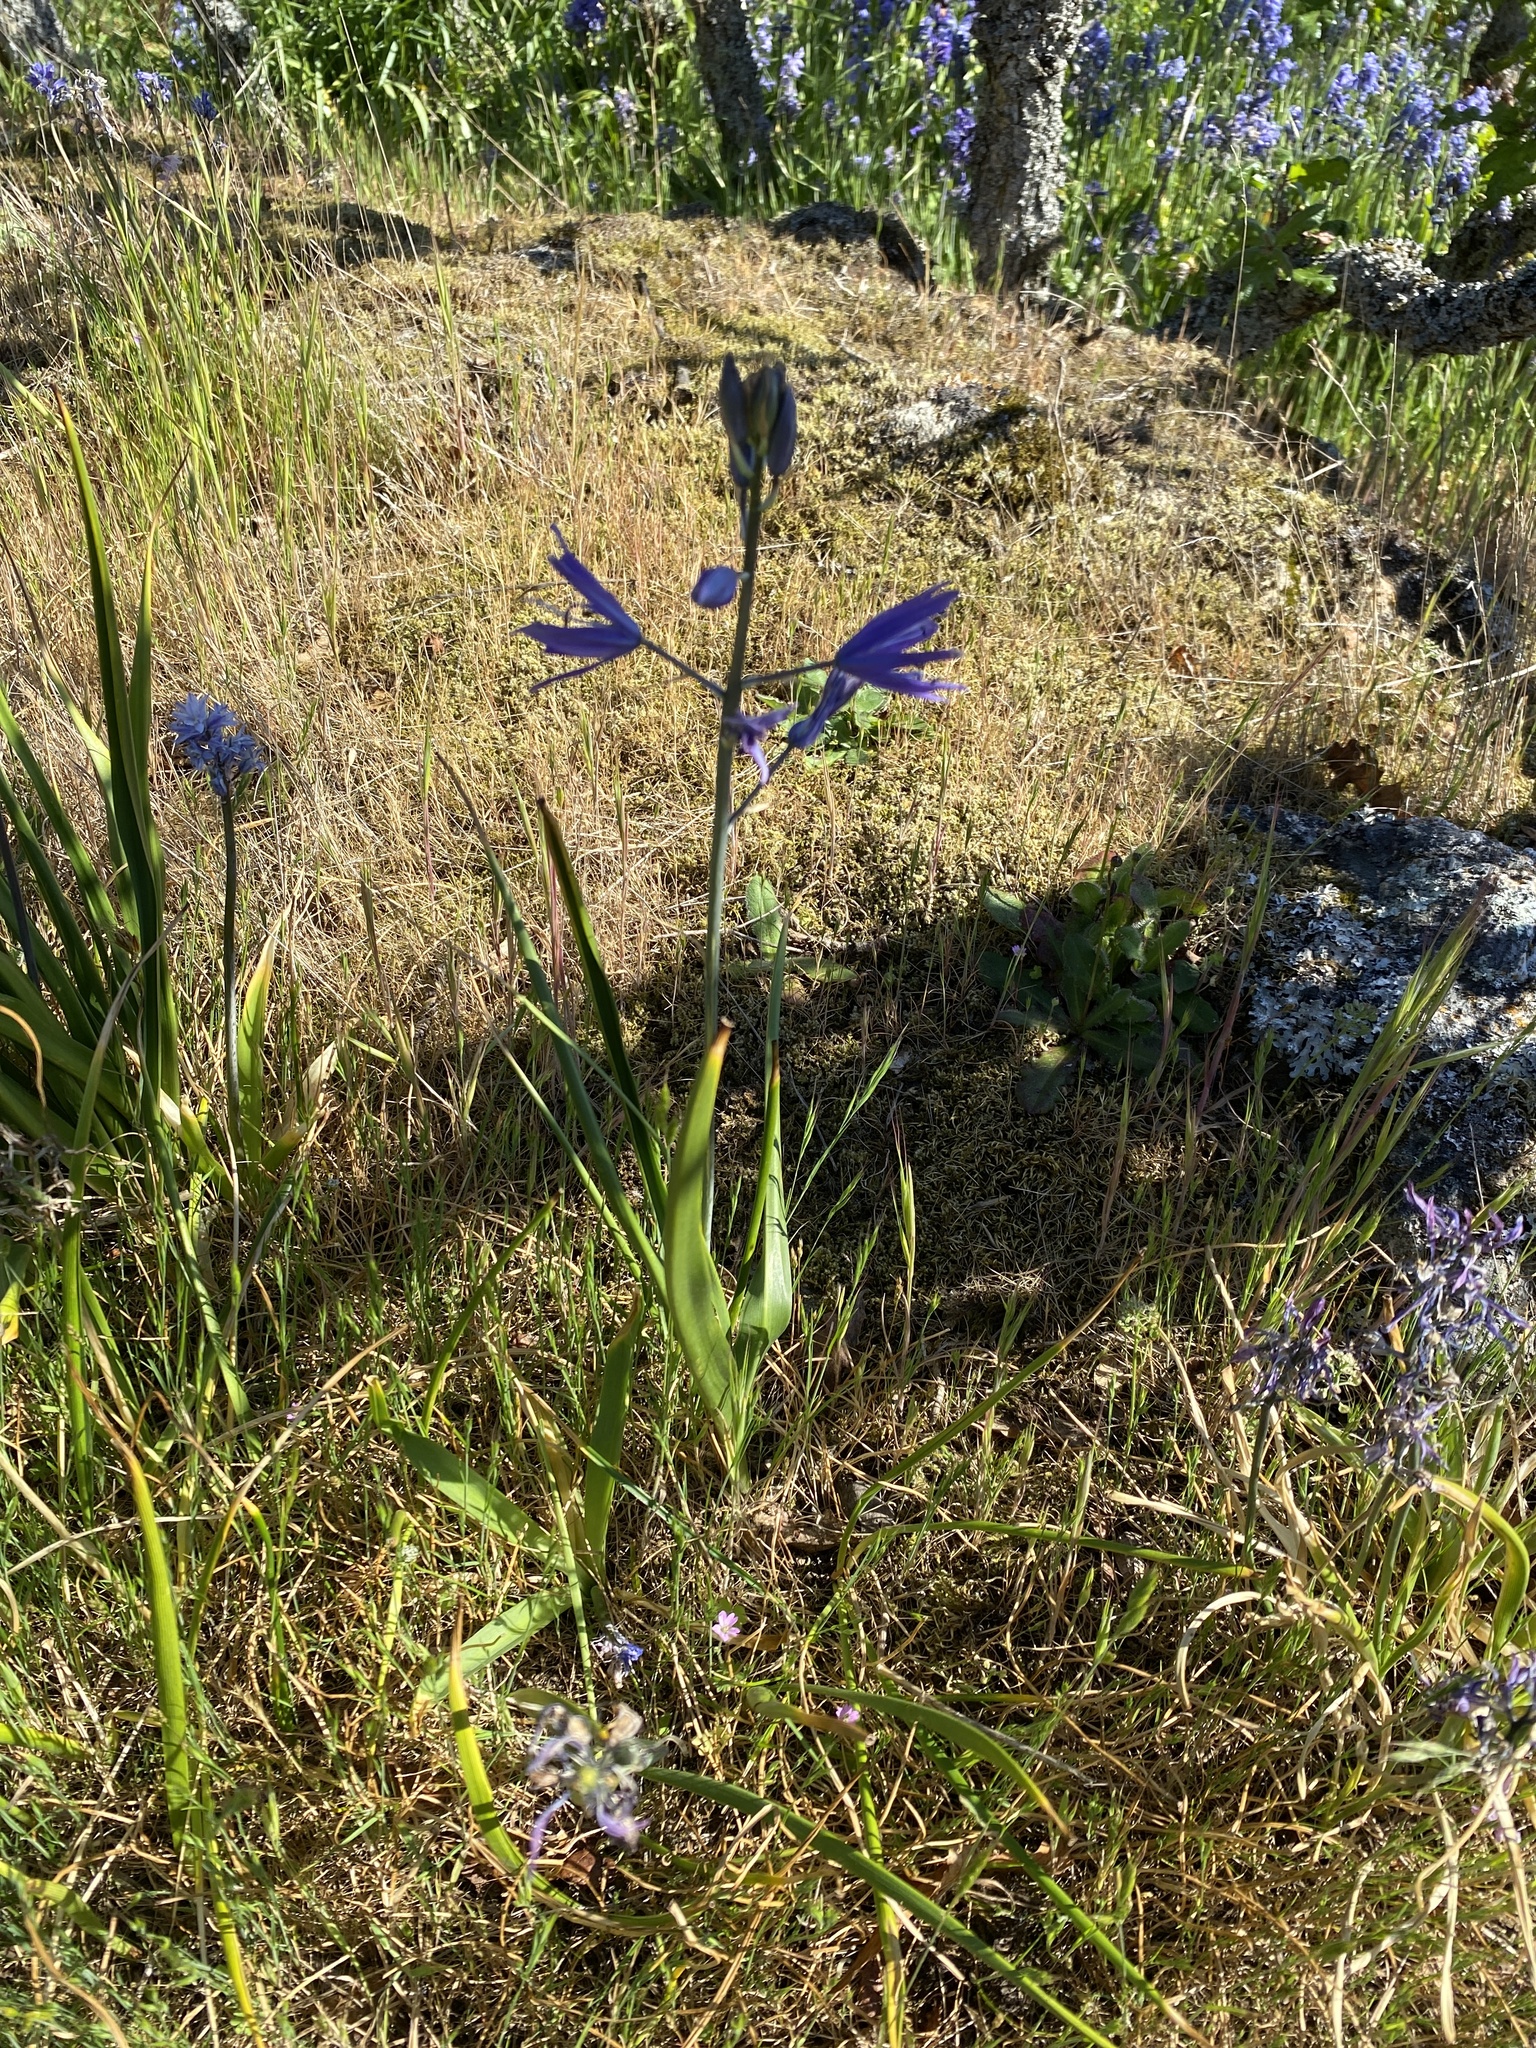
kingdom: Plantae
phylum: Tracheophyta
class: Liliopsida
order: Asparagales
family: Asparagaceae
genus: Camassia
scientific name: Camassia leichtlinii
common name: Leichtlin's camas
